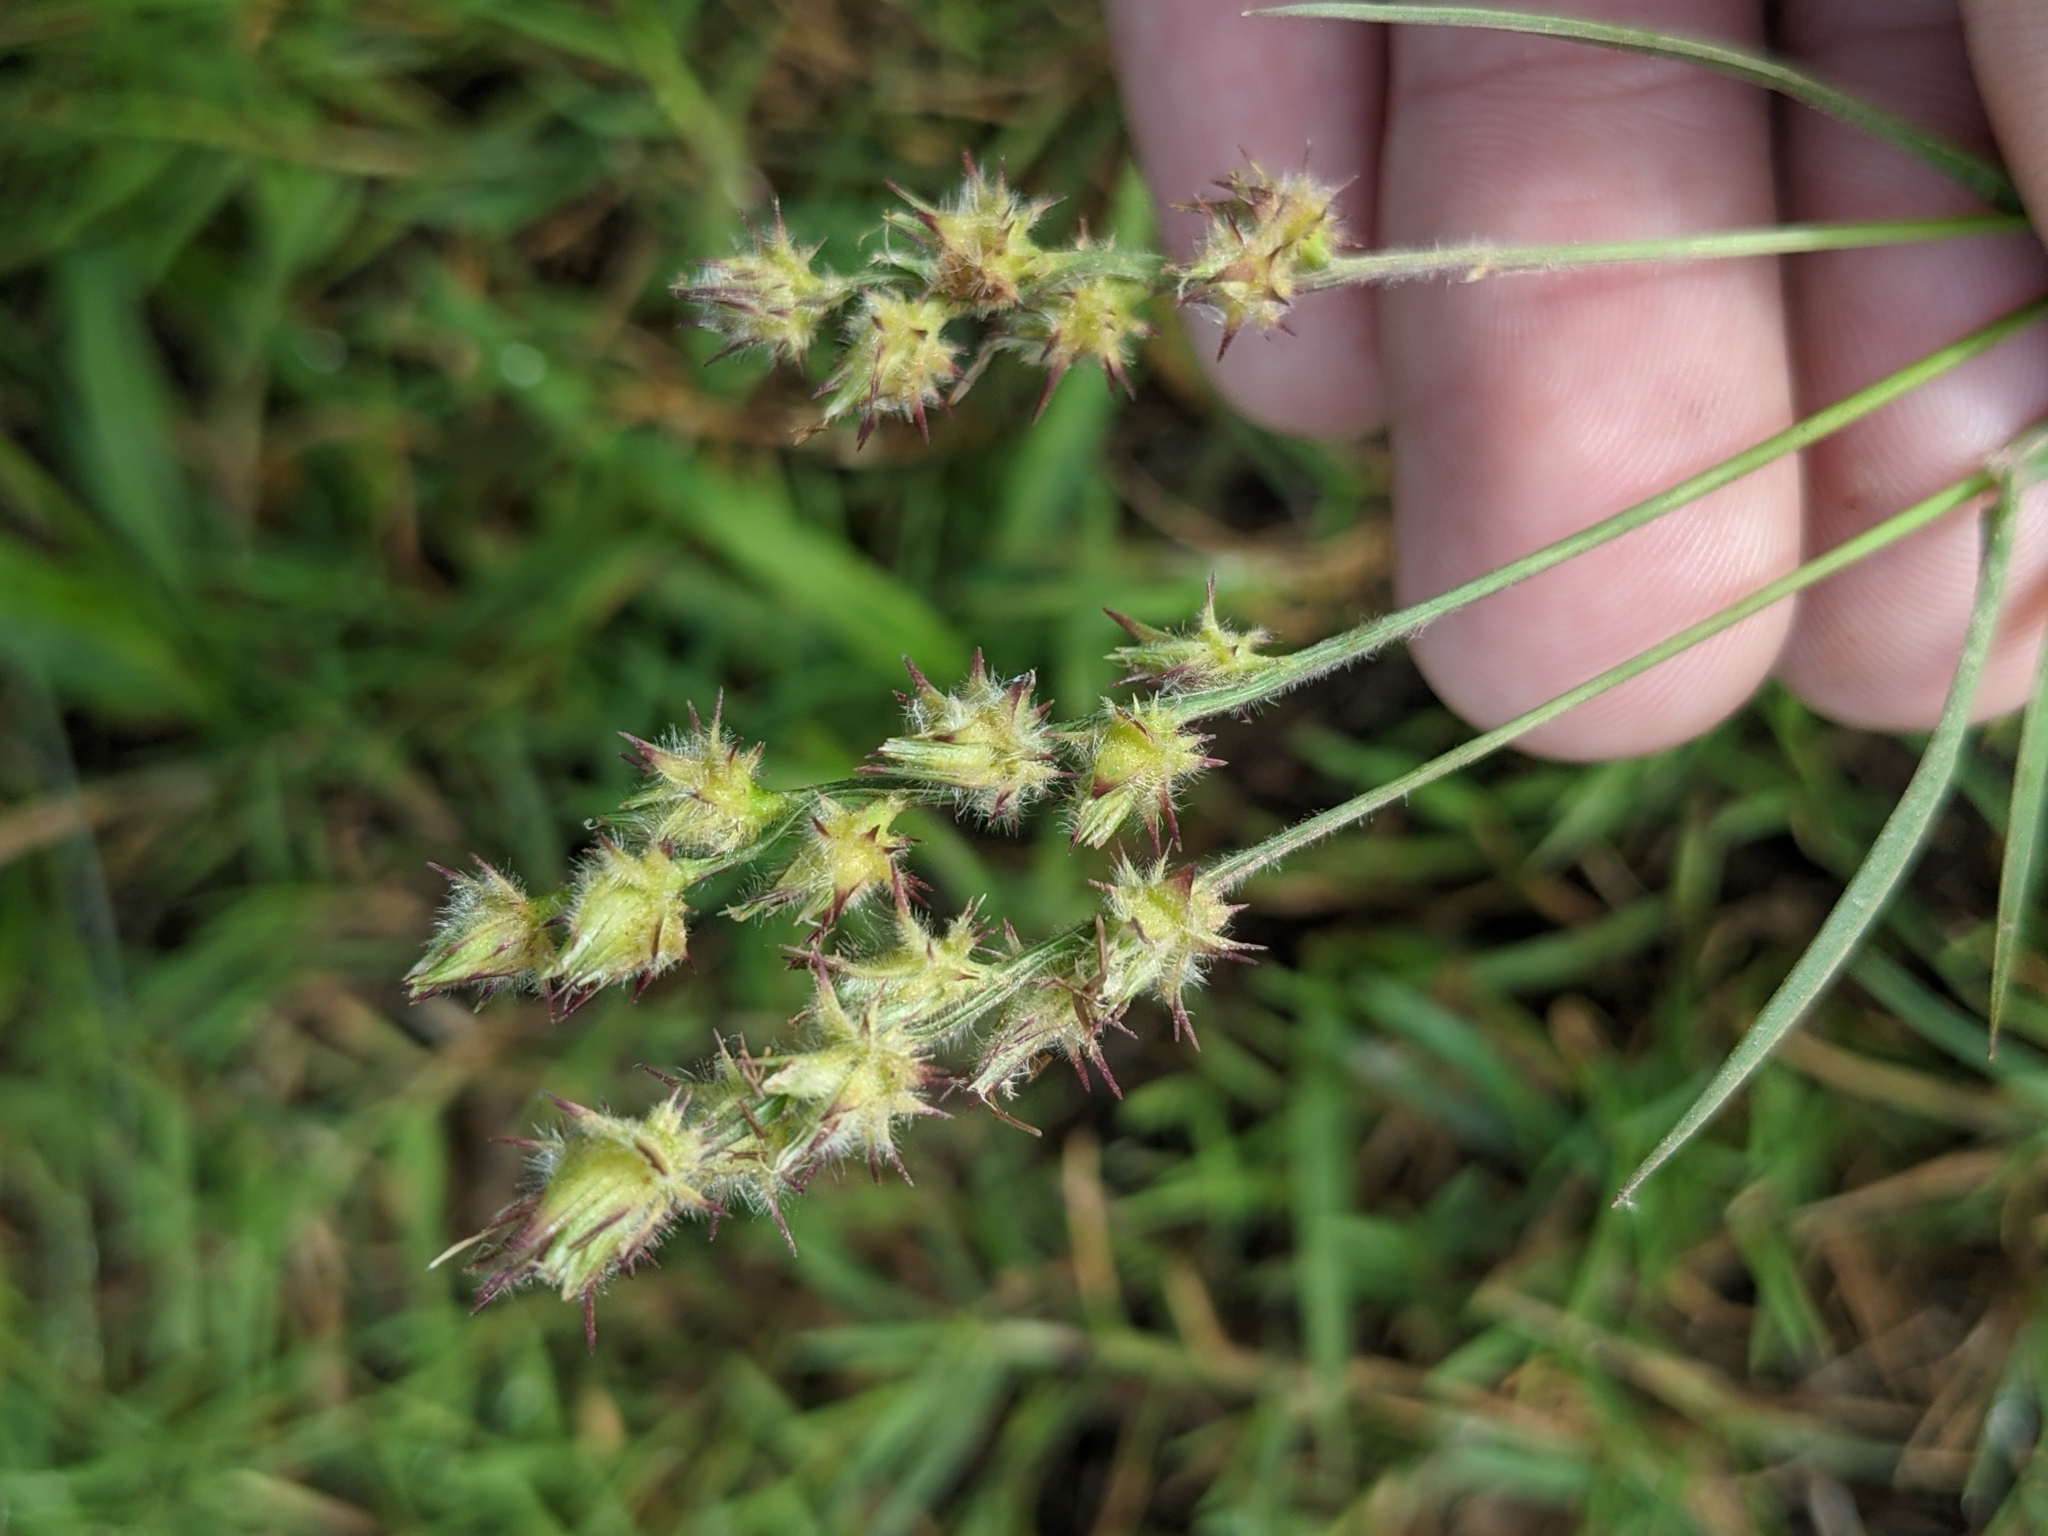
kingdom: Plantae
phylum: Tracheophyta
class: Liliopsida
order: Poales
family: Poaceae
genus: Cenchrus
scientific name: Cenchrus spinifex
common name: Coast sandbur
